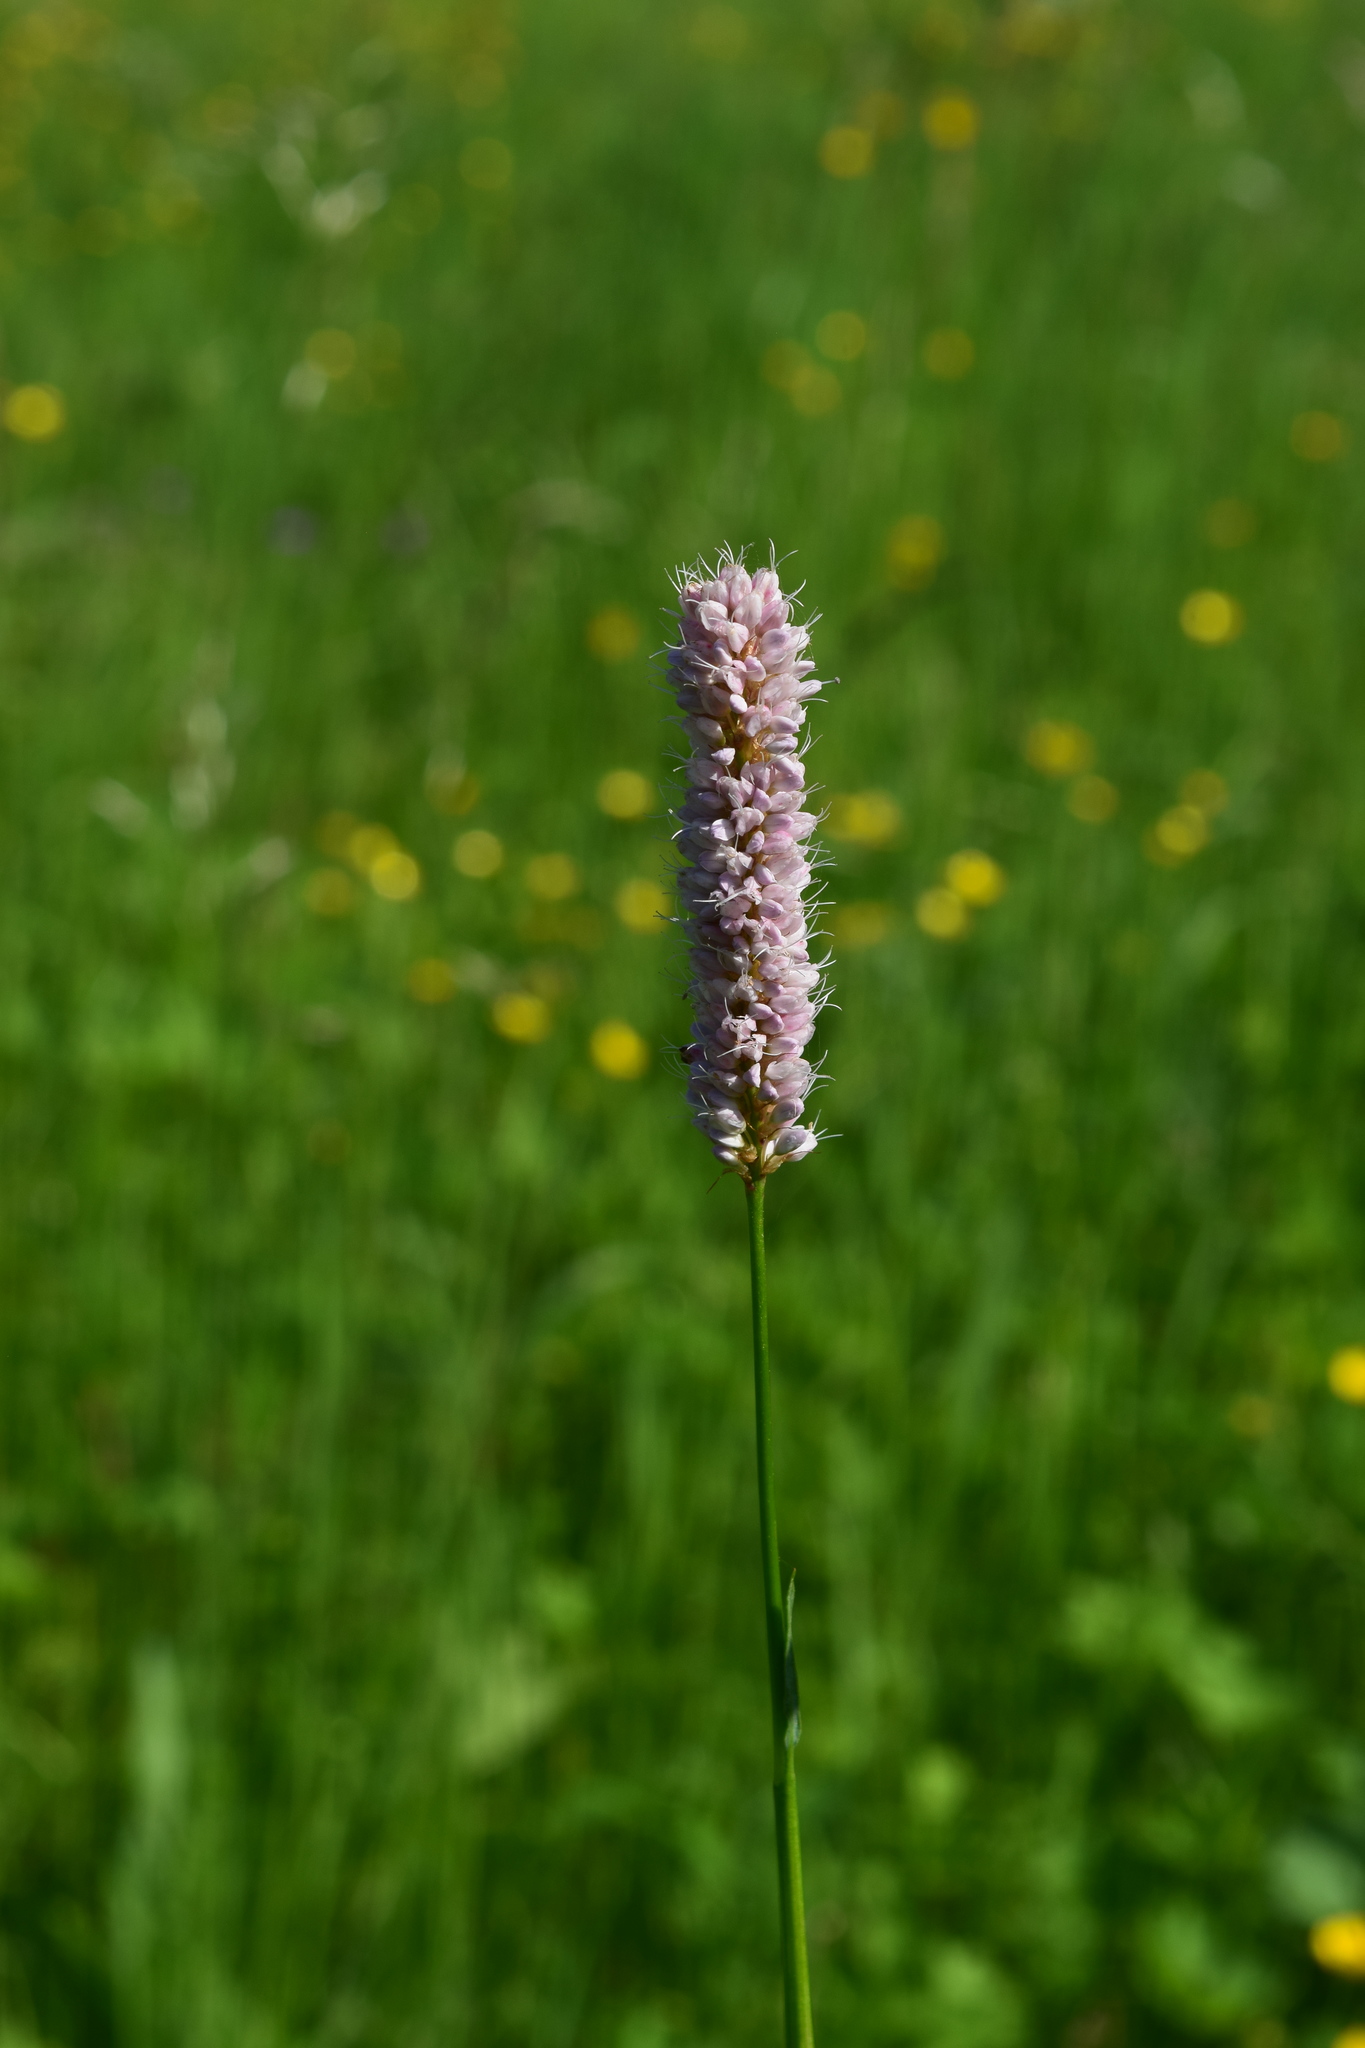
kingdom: Plantae
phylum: Tracheophyta
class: Magnoliopsida
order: Caryophyllales
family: Polygonaceae
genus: Bistorta
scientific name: Bistorta officinalis
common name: Common bistort
